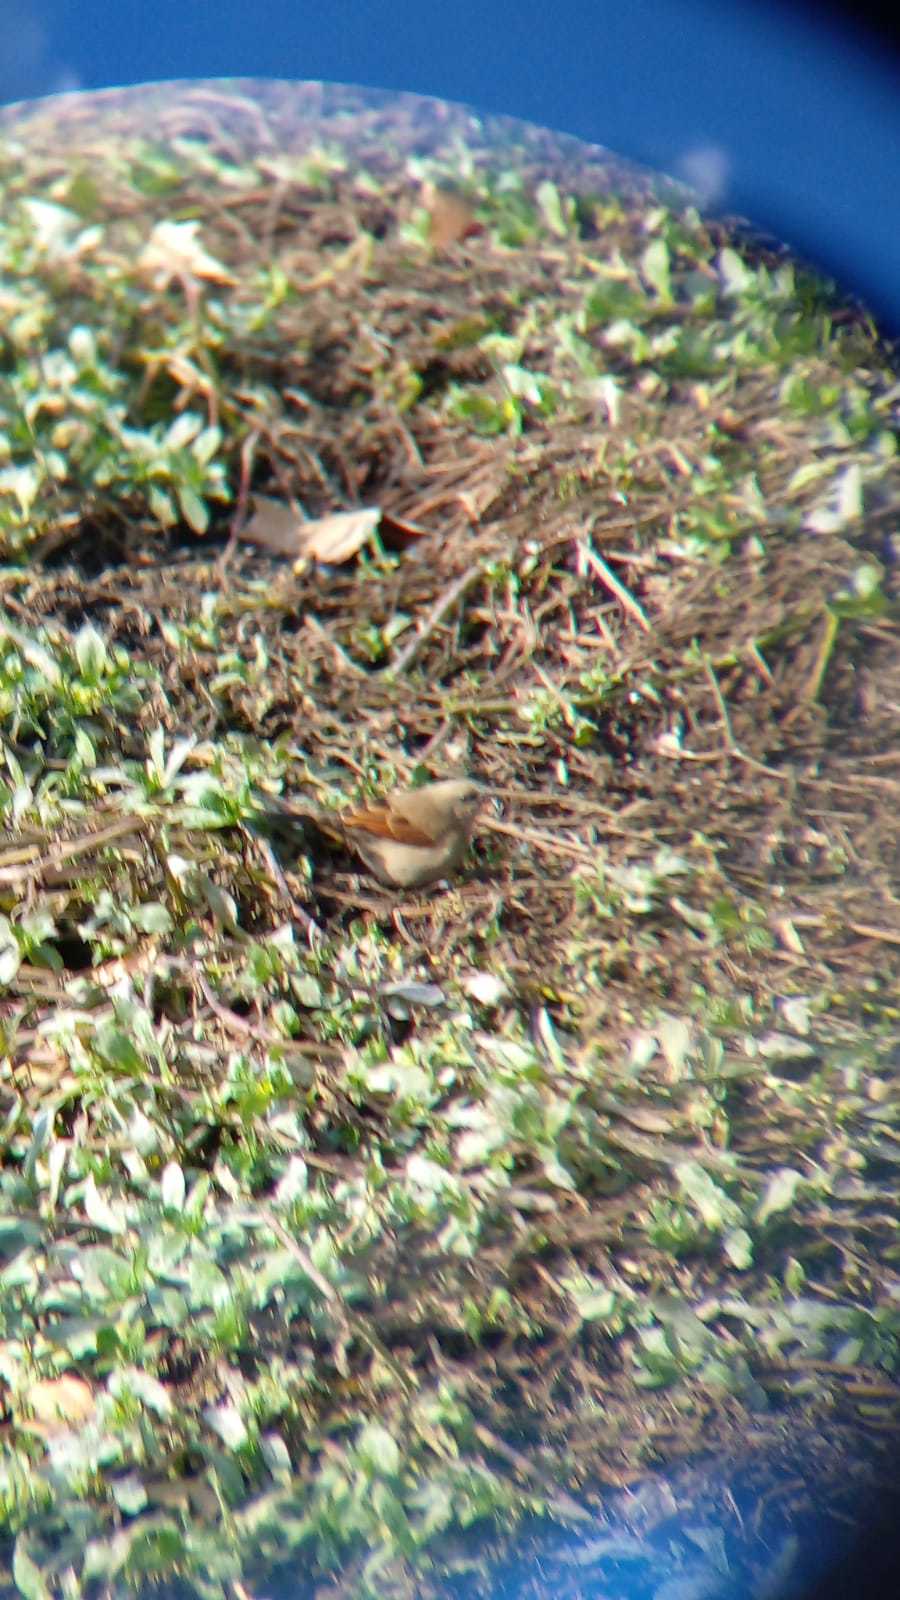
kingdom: Animalia
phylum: Chordata
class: Aves
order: Passeriformes
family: Icteridae
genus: Agelaioides
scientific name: Agelaioides badius
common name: Baywing
